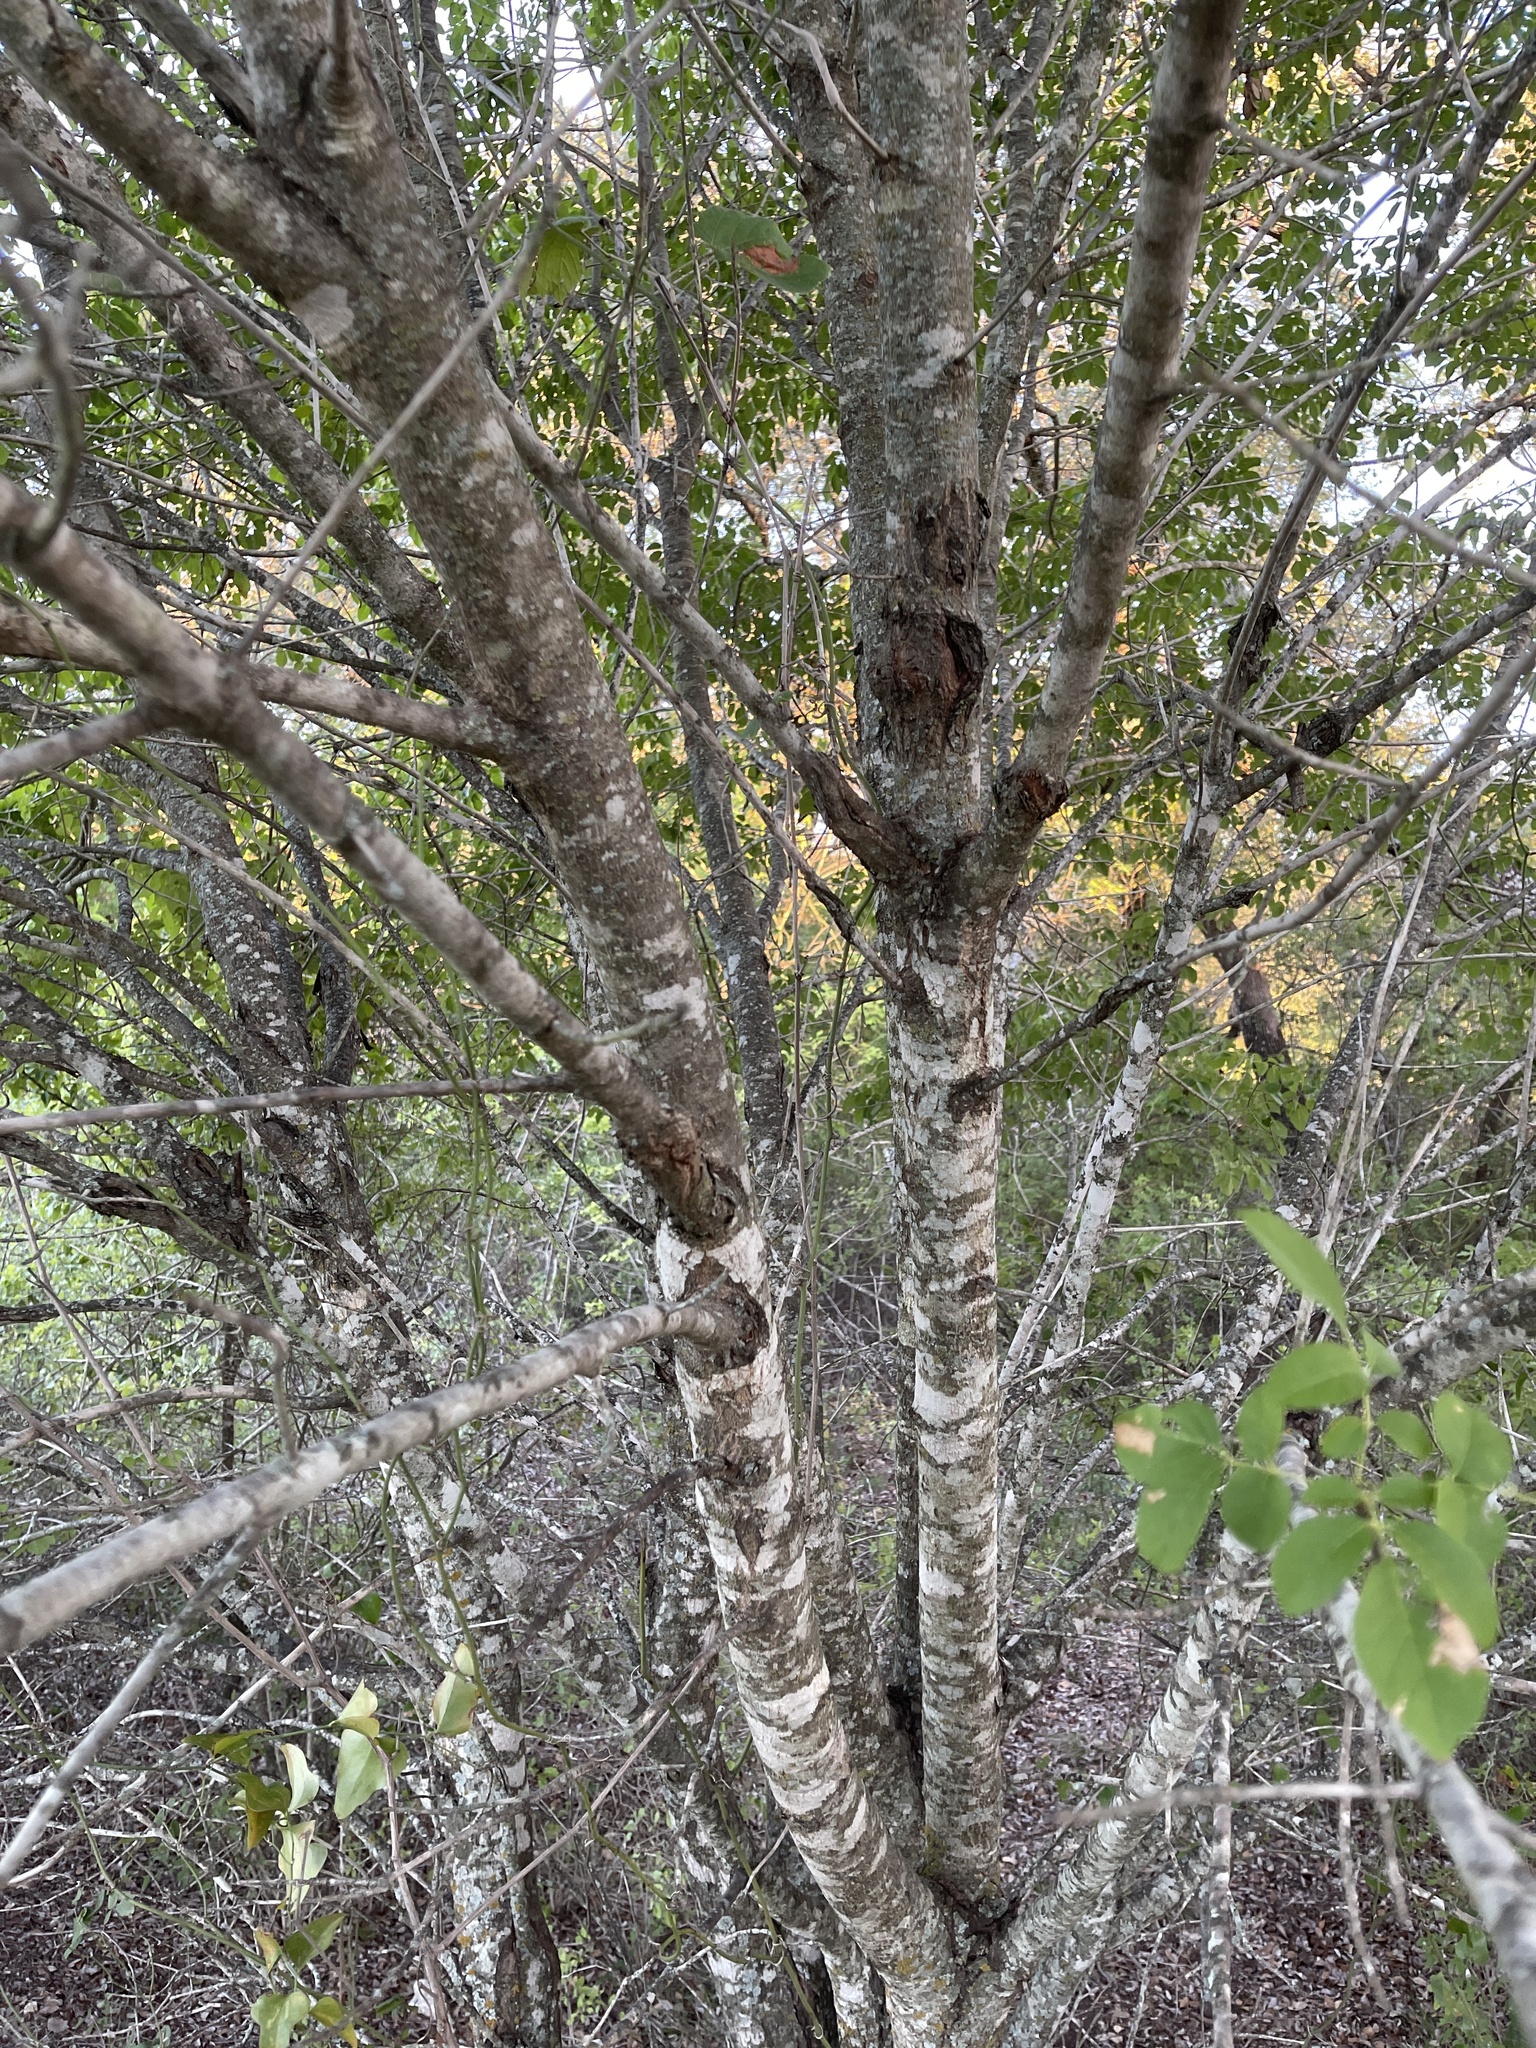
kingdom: Plantae
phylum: Tracheophyta
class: Magnoliopsida
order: Lamiales
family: Oleaceae
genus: Fraxinus
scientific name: Fraxinus albicans
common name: Texas ash
